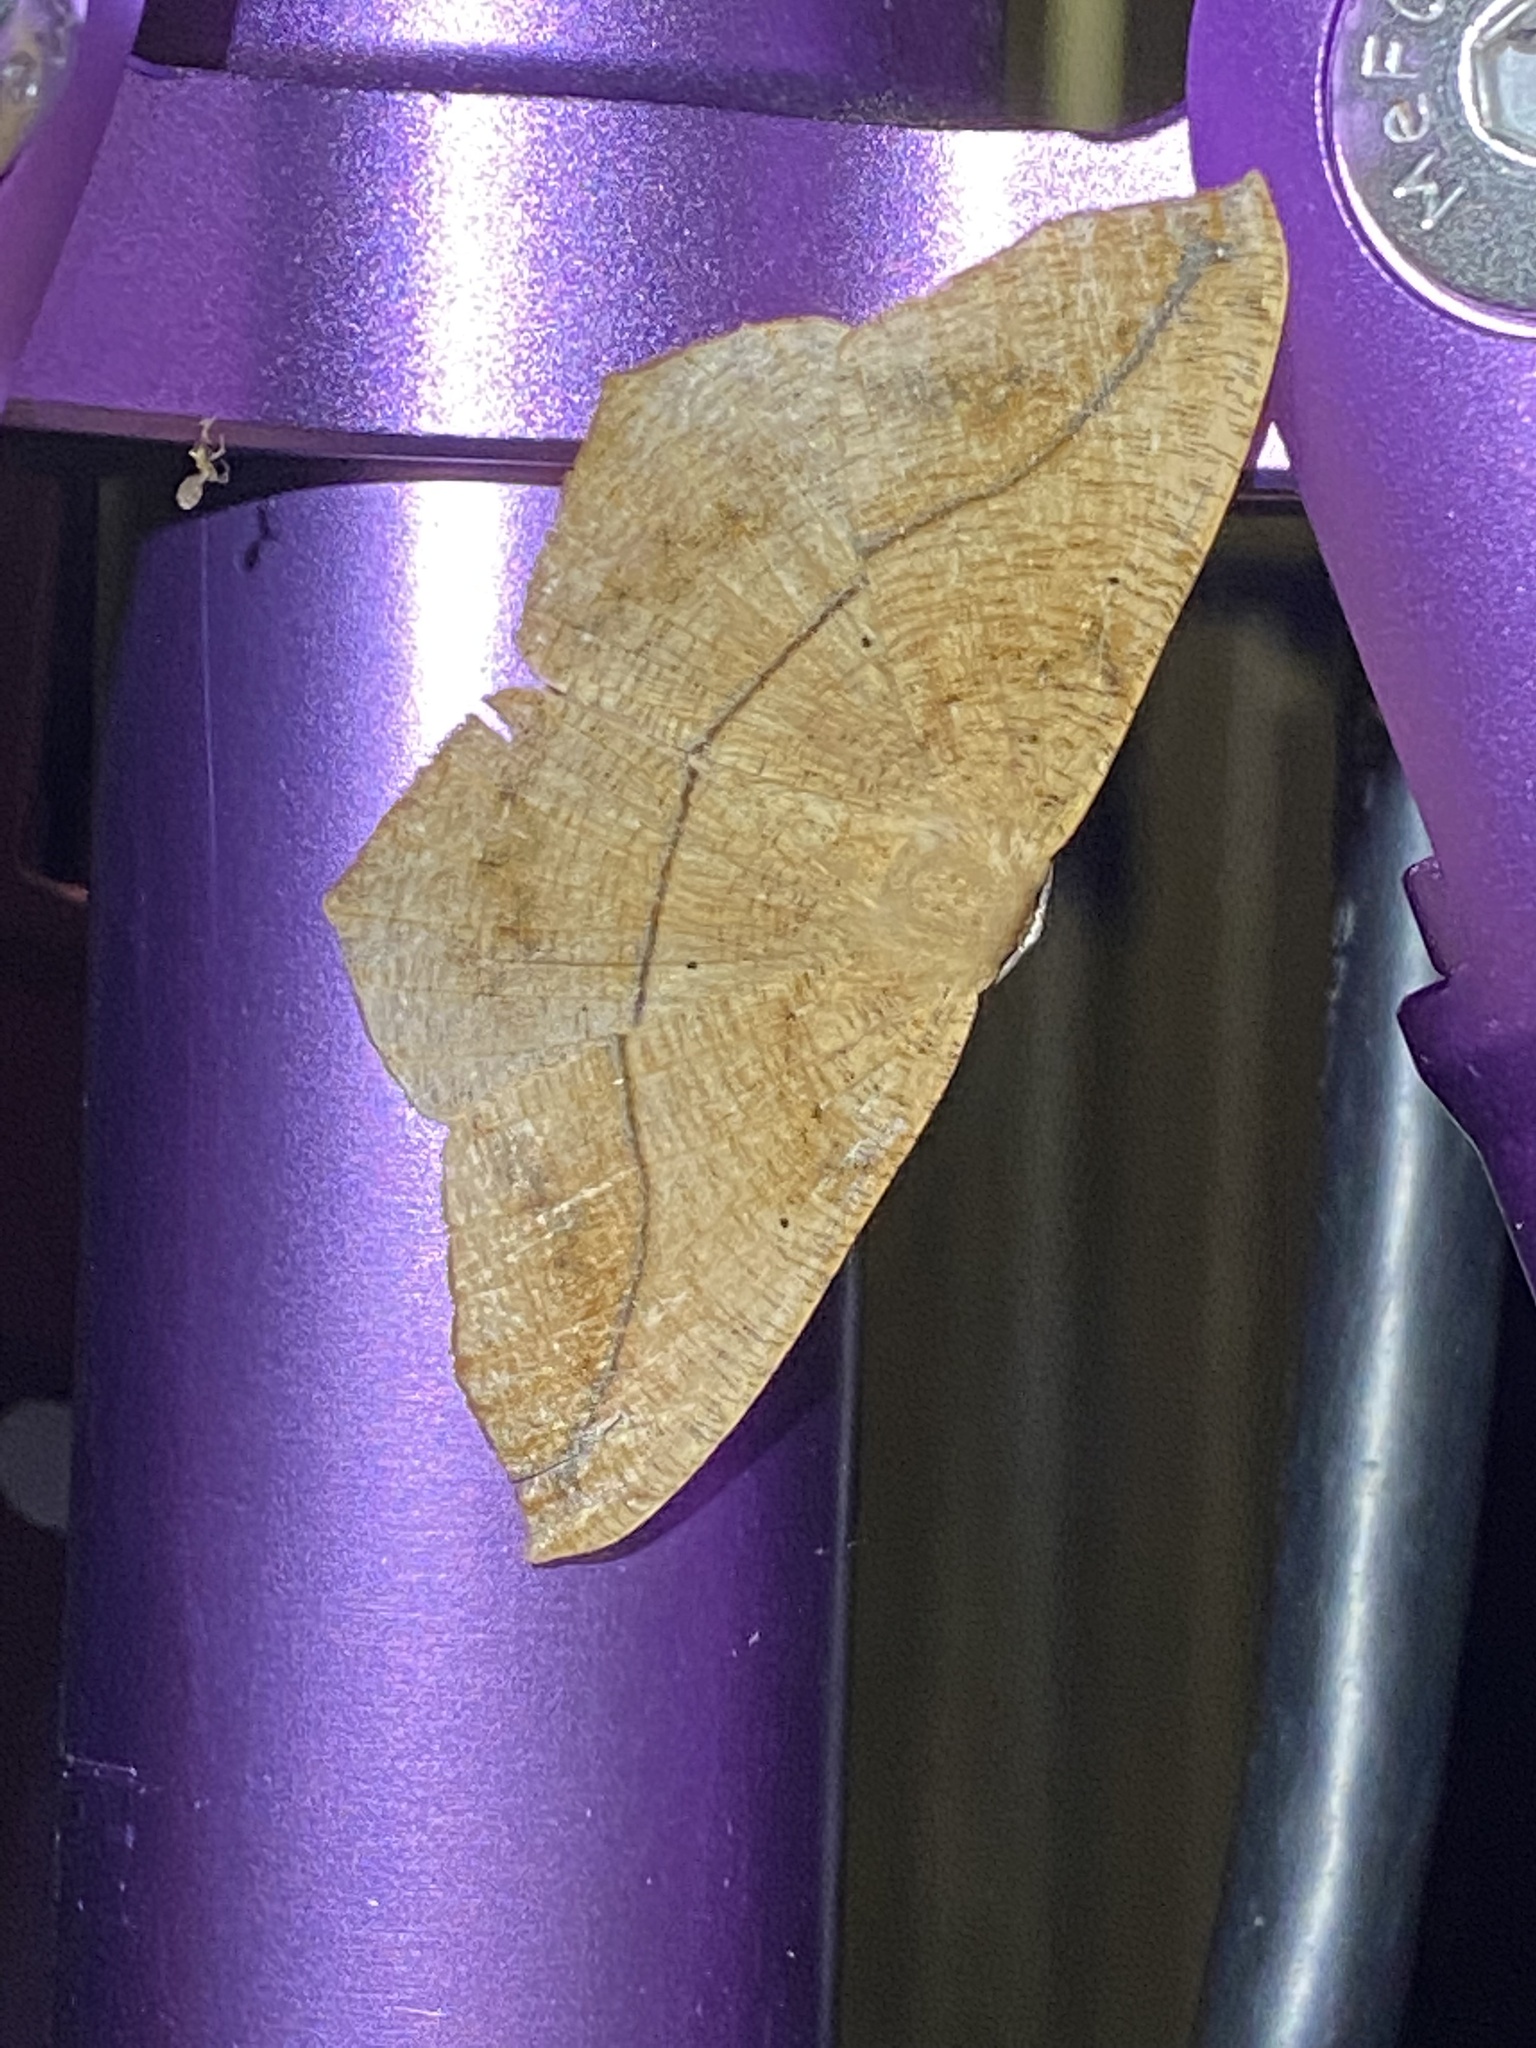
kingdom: Animalia
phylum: Arthropoda
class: Insecta
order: Lepidoptera
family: Geometridae
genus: Prochoerodes
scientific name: Prochoerodes lineola
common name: Large maple spanworm
